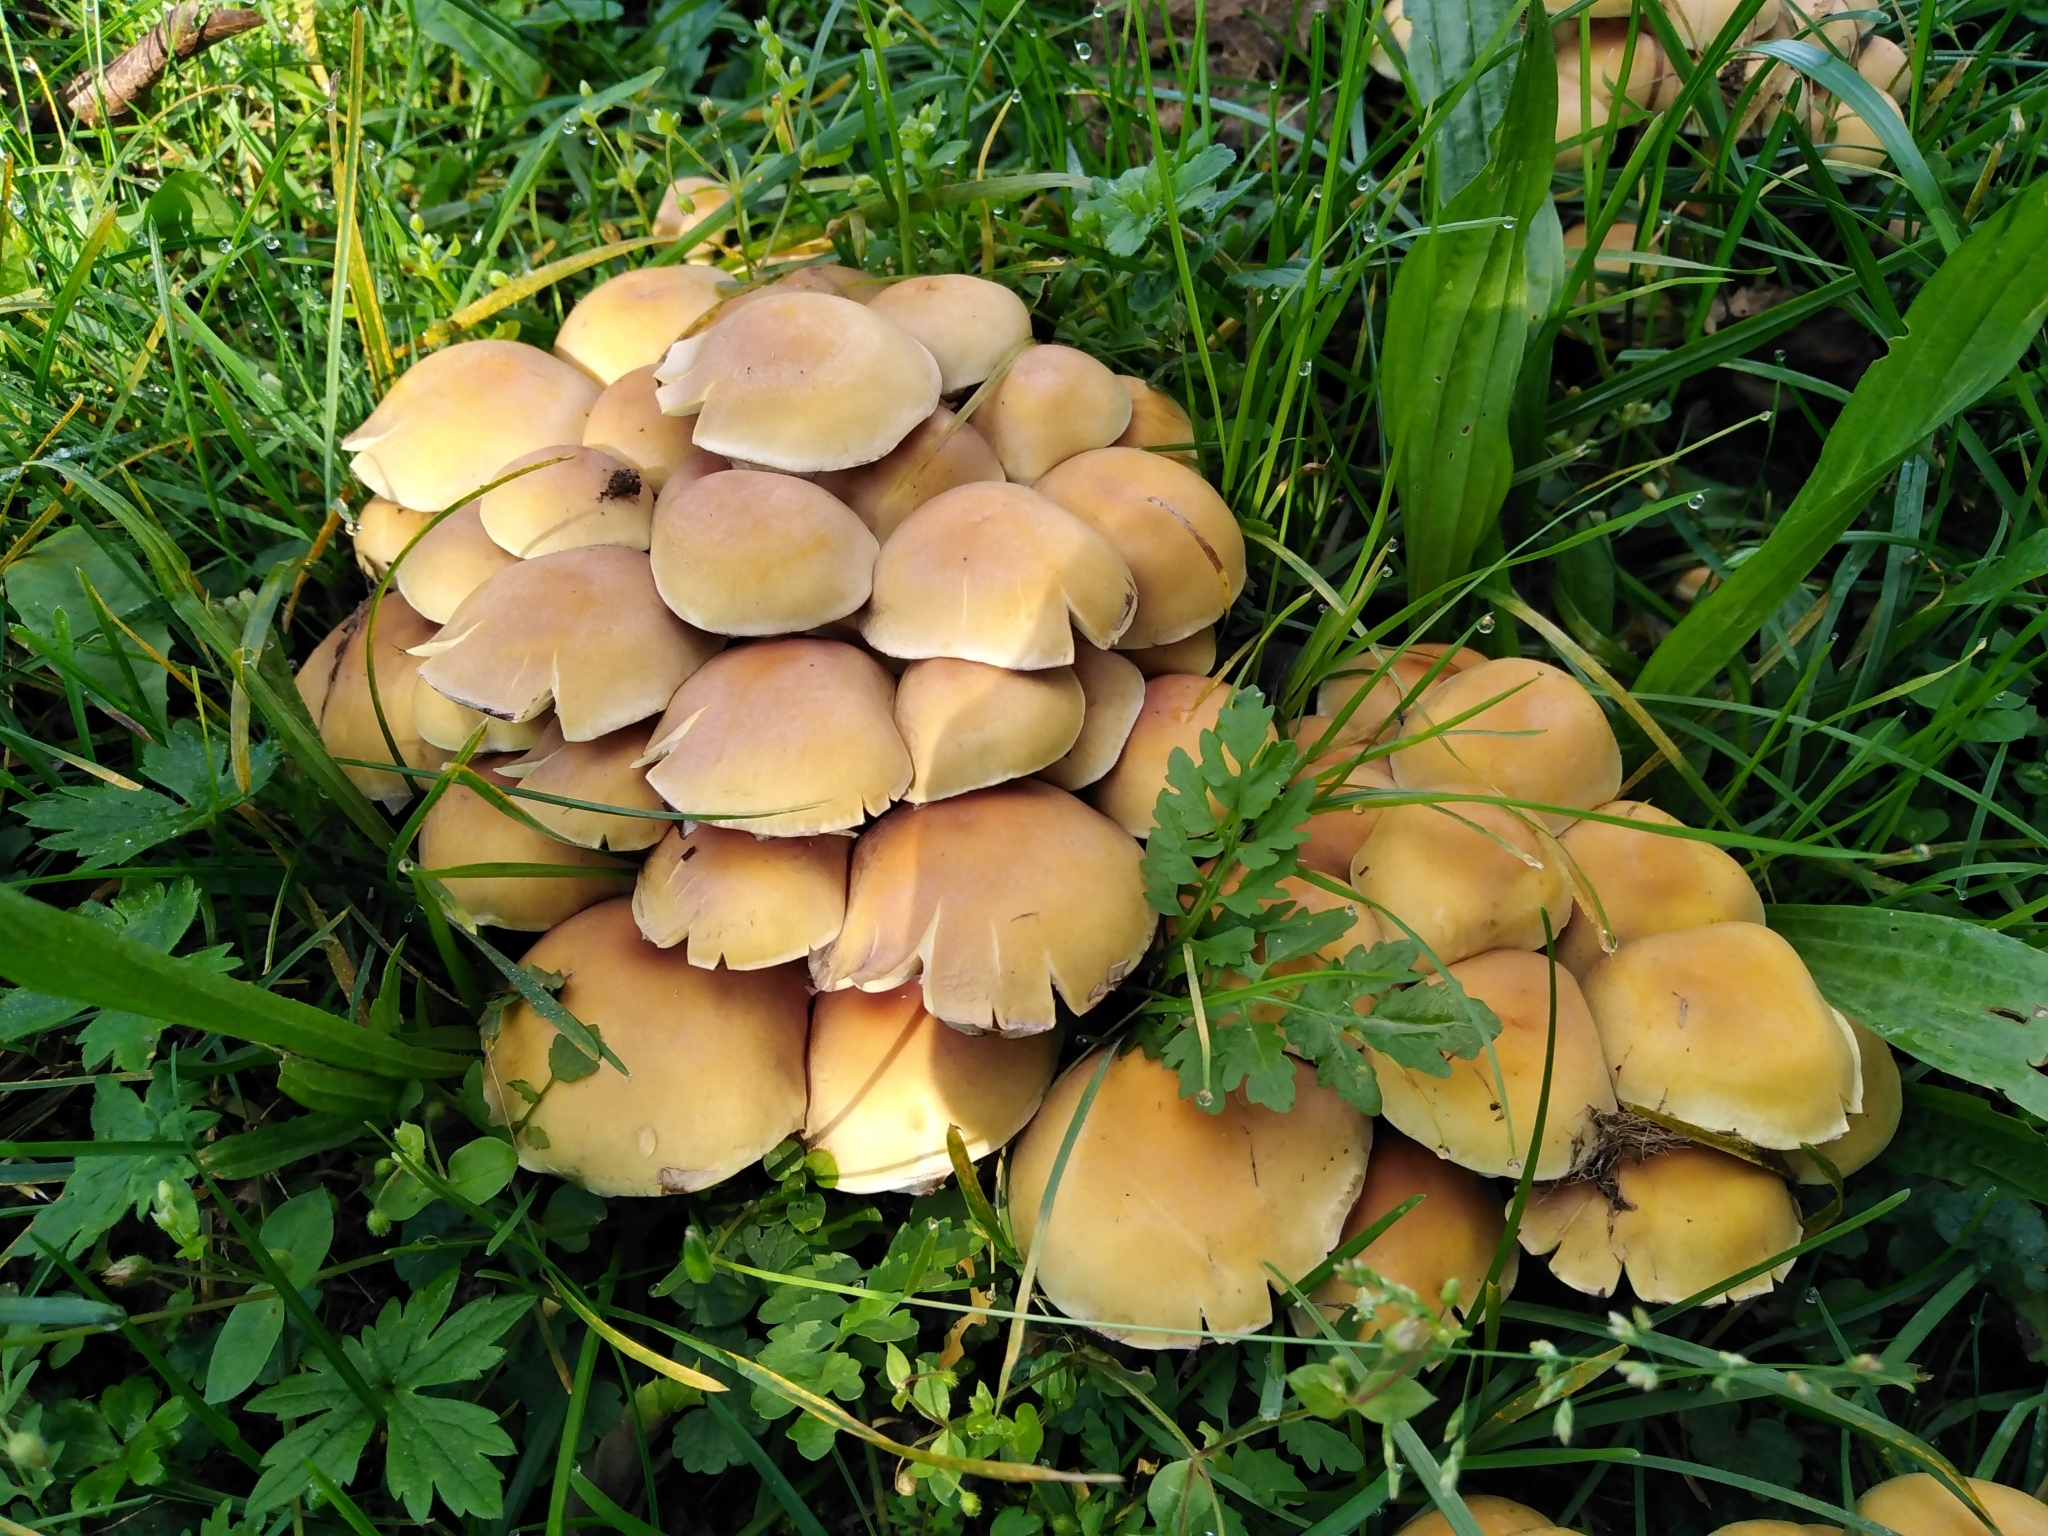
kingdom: Fungi
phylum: Basidiomycota
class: Agaricomycetes
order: Agaricales
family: Strophariaceae
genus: Hypholoma
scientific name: Hypholoma fasciculare
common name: Sulphur tuft
